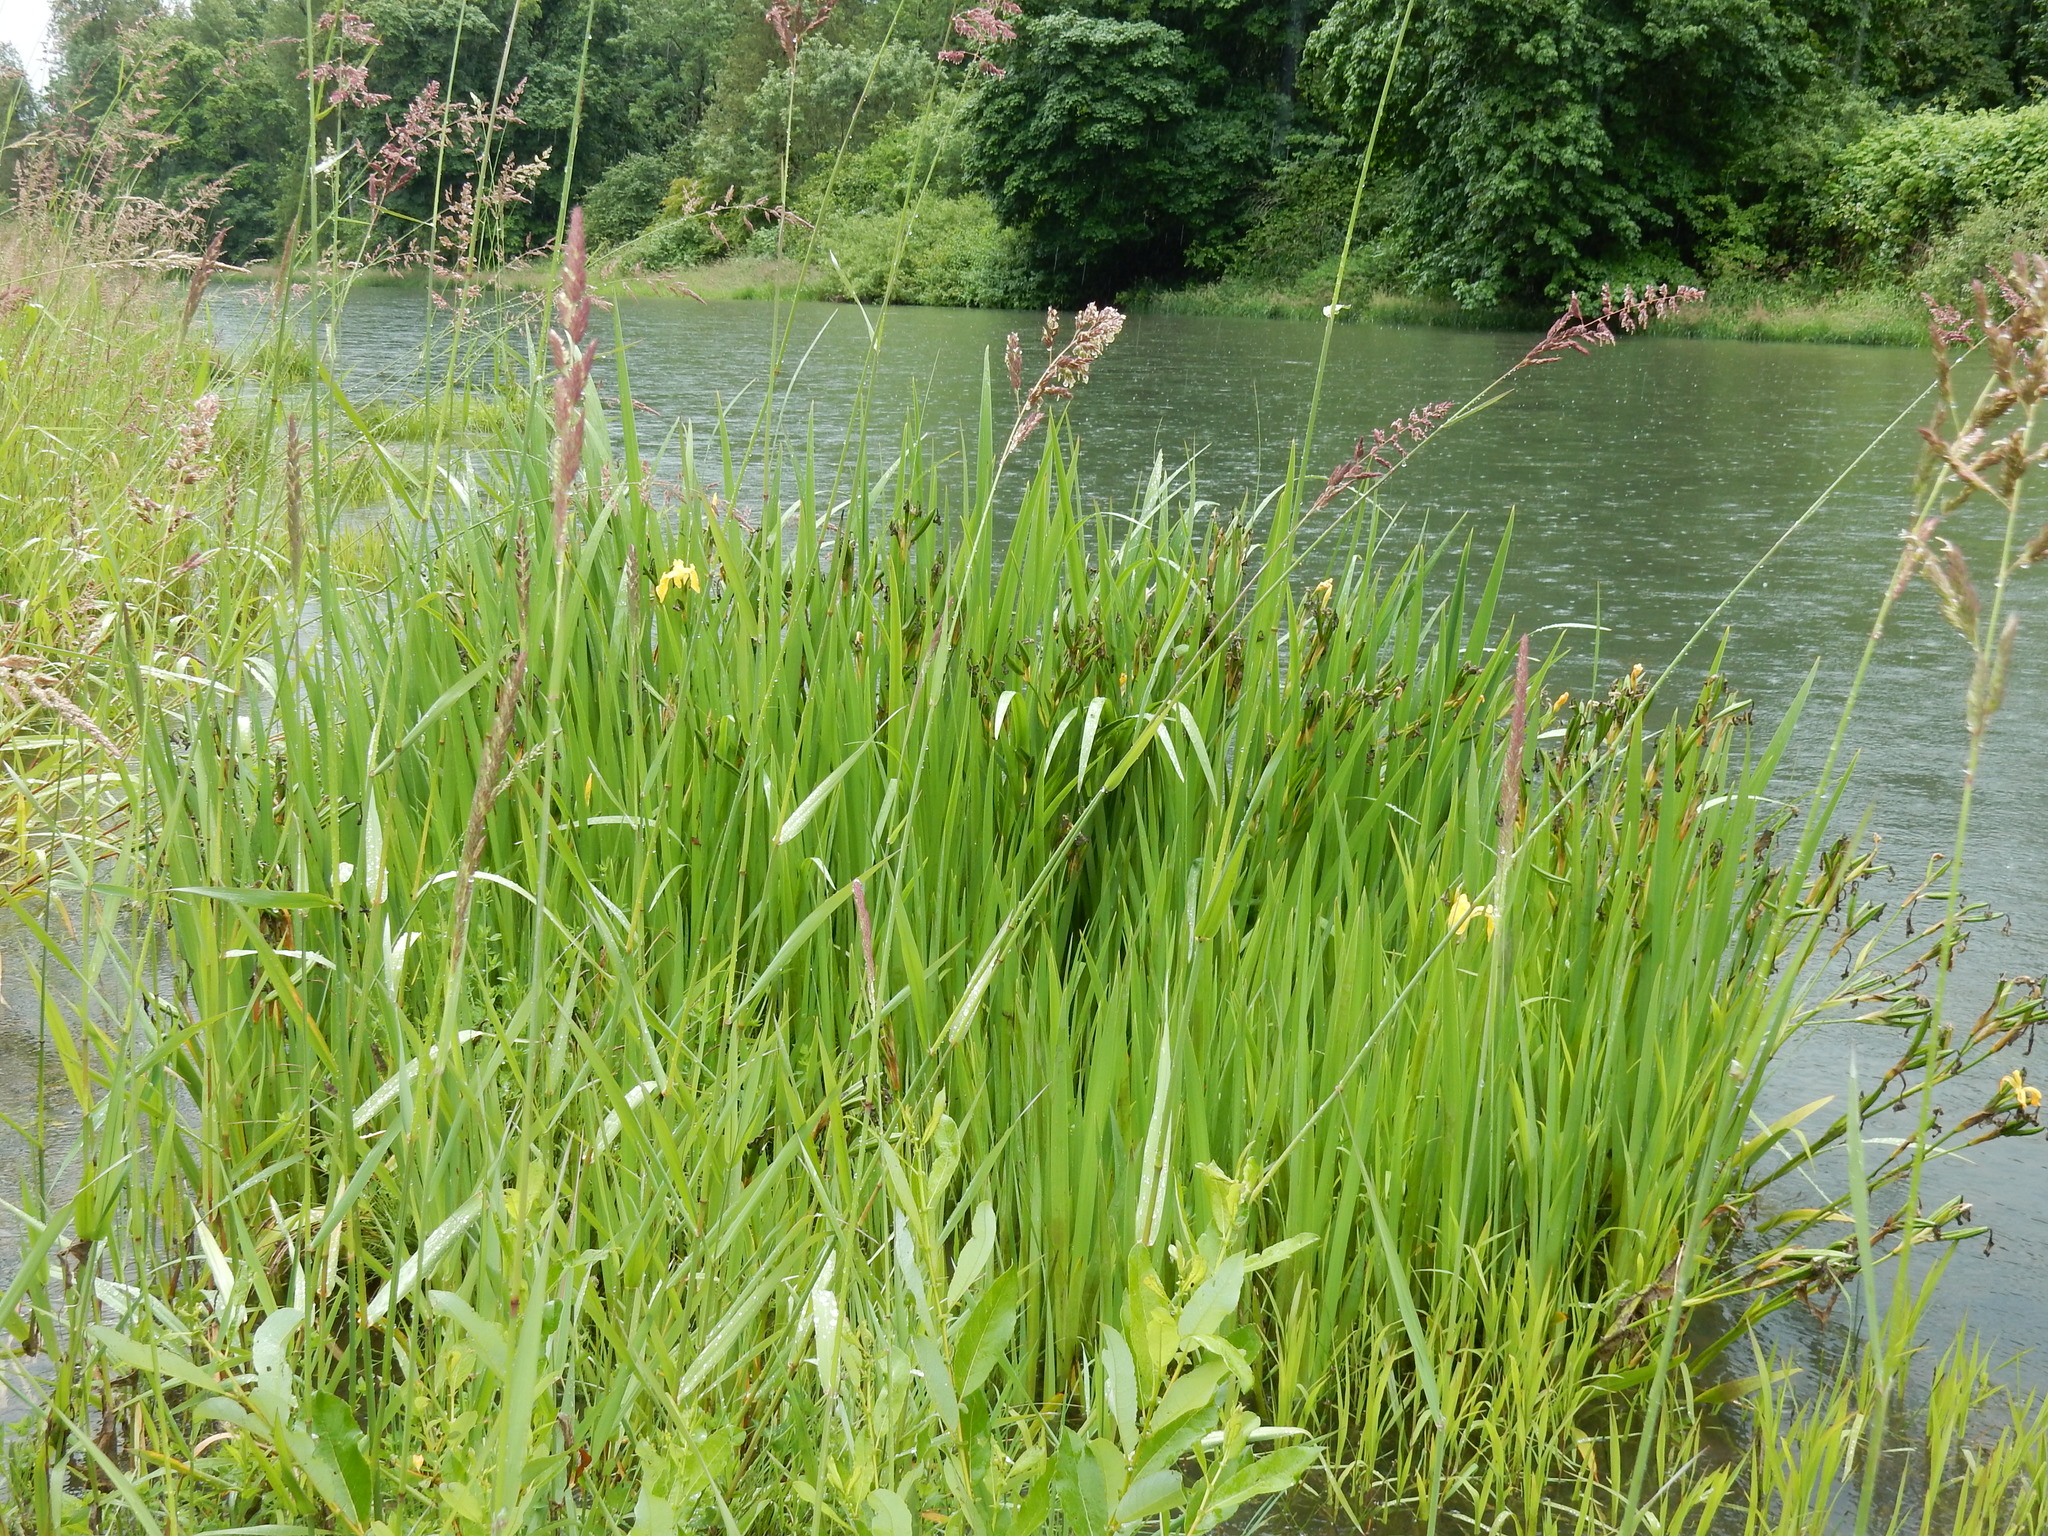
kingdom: Plantae
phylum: Tracheophyta
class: Liliopsida
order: Asparagales
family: Iridaceae
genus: Iris
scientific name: Iris pseudacorus
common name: Yellow flag
